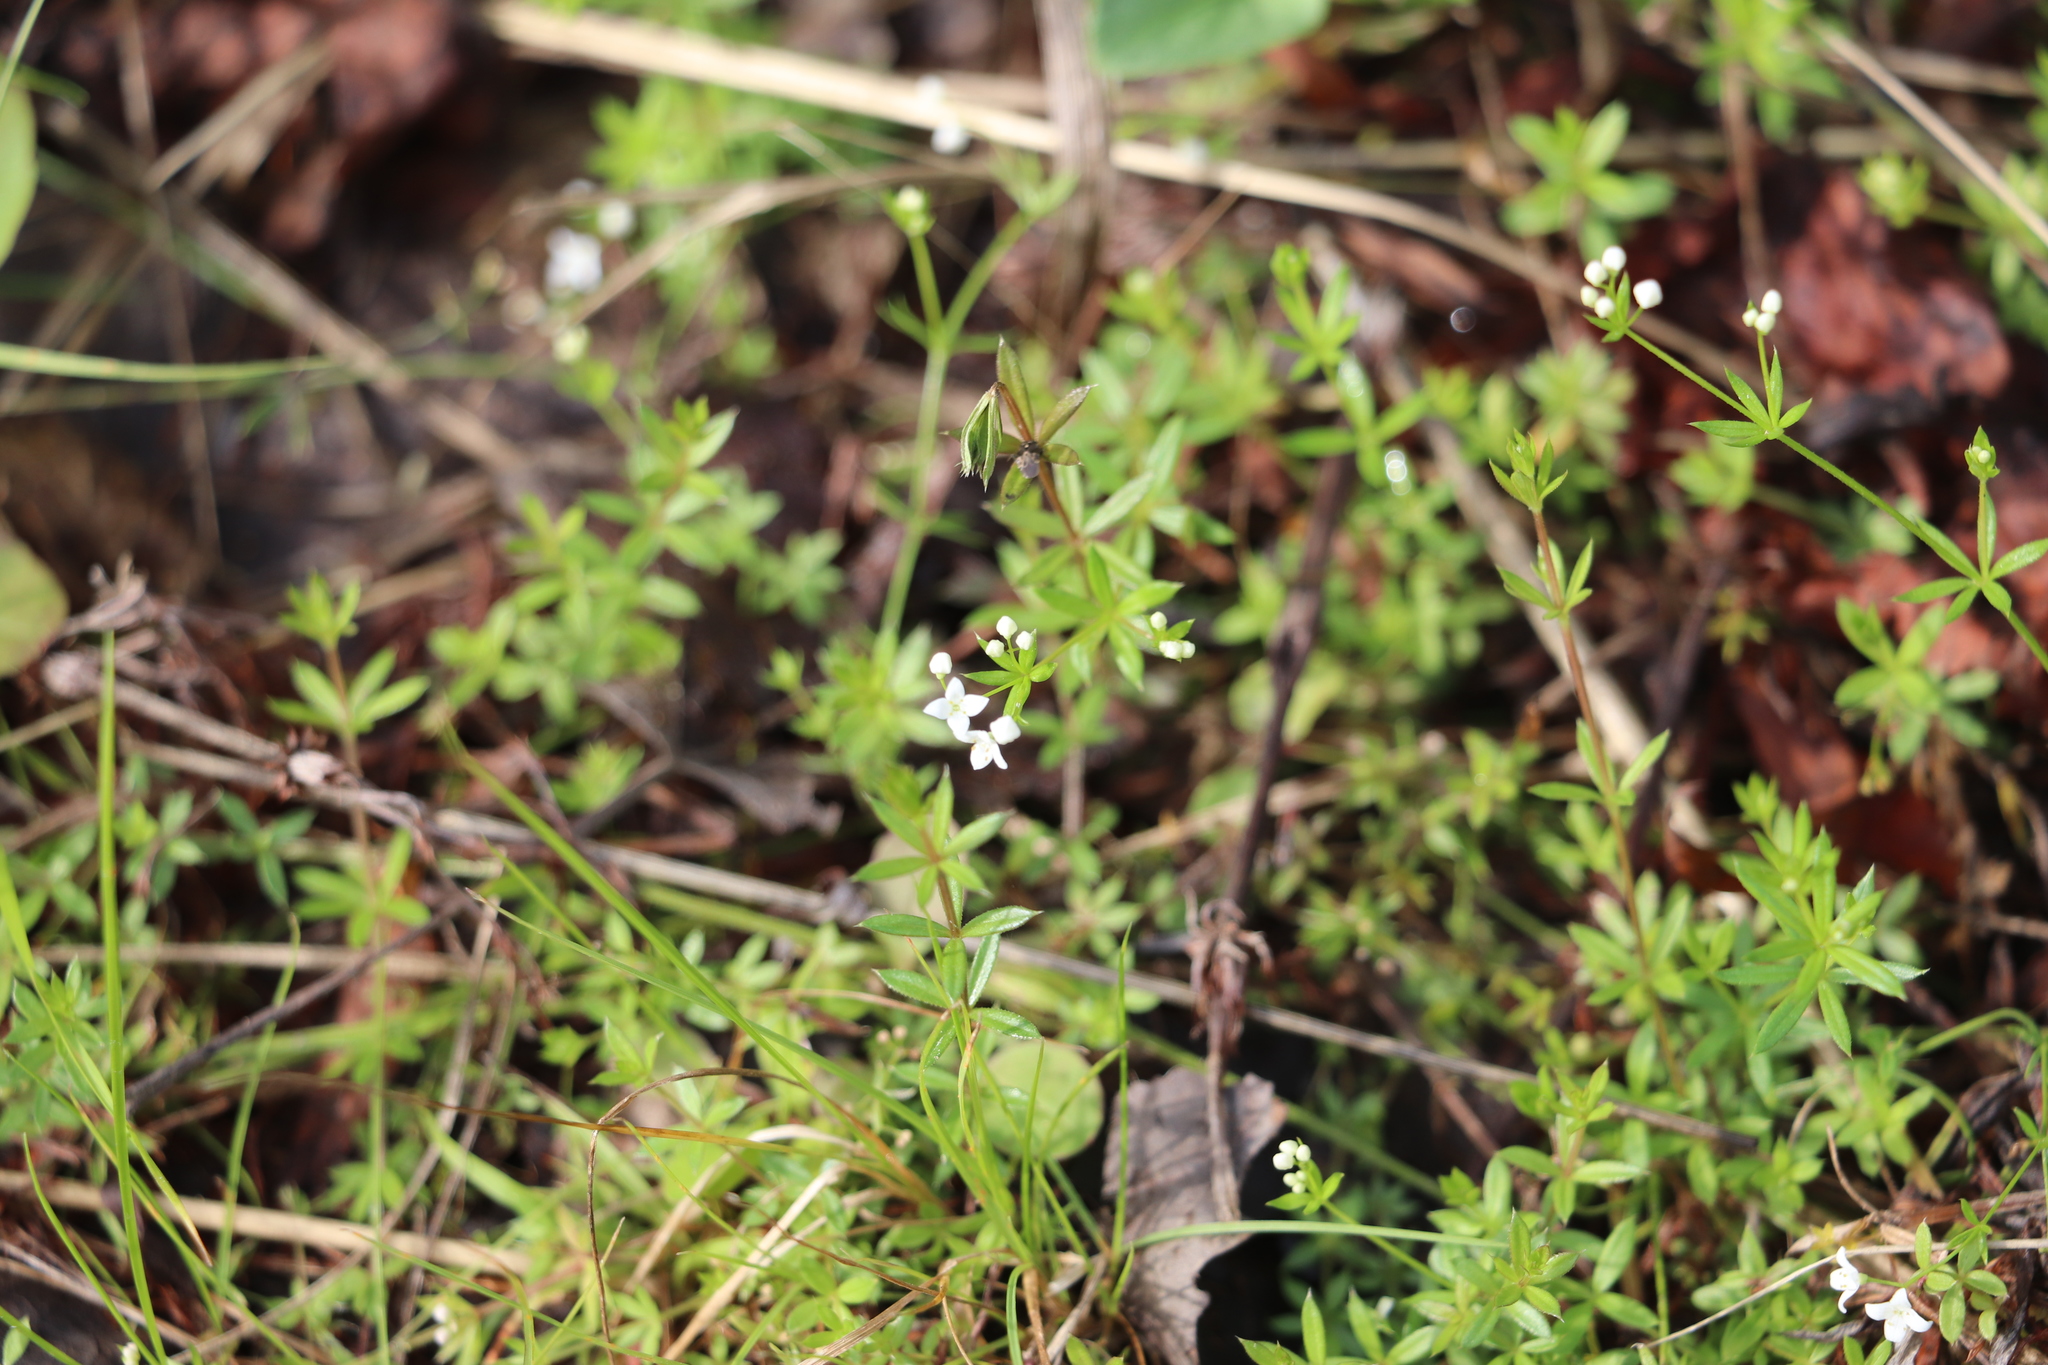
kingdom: Plantae
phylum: Tracheophyta
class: Magnoliopsida
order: Gentianales
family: Rubiaceae
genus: Galium
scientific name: Galium uliginosum
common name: Fen bedstraw
